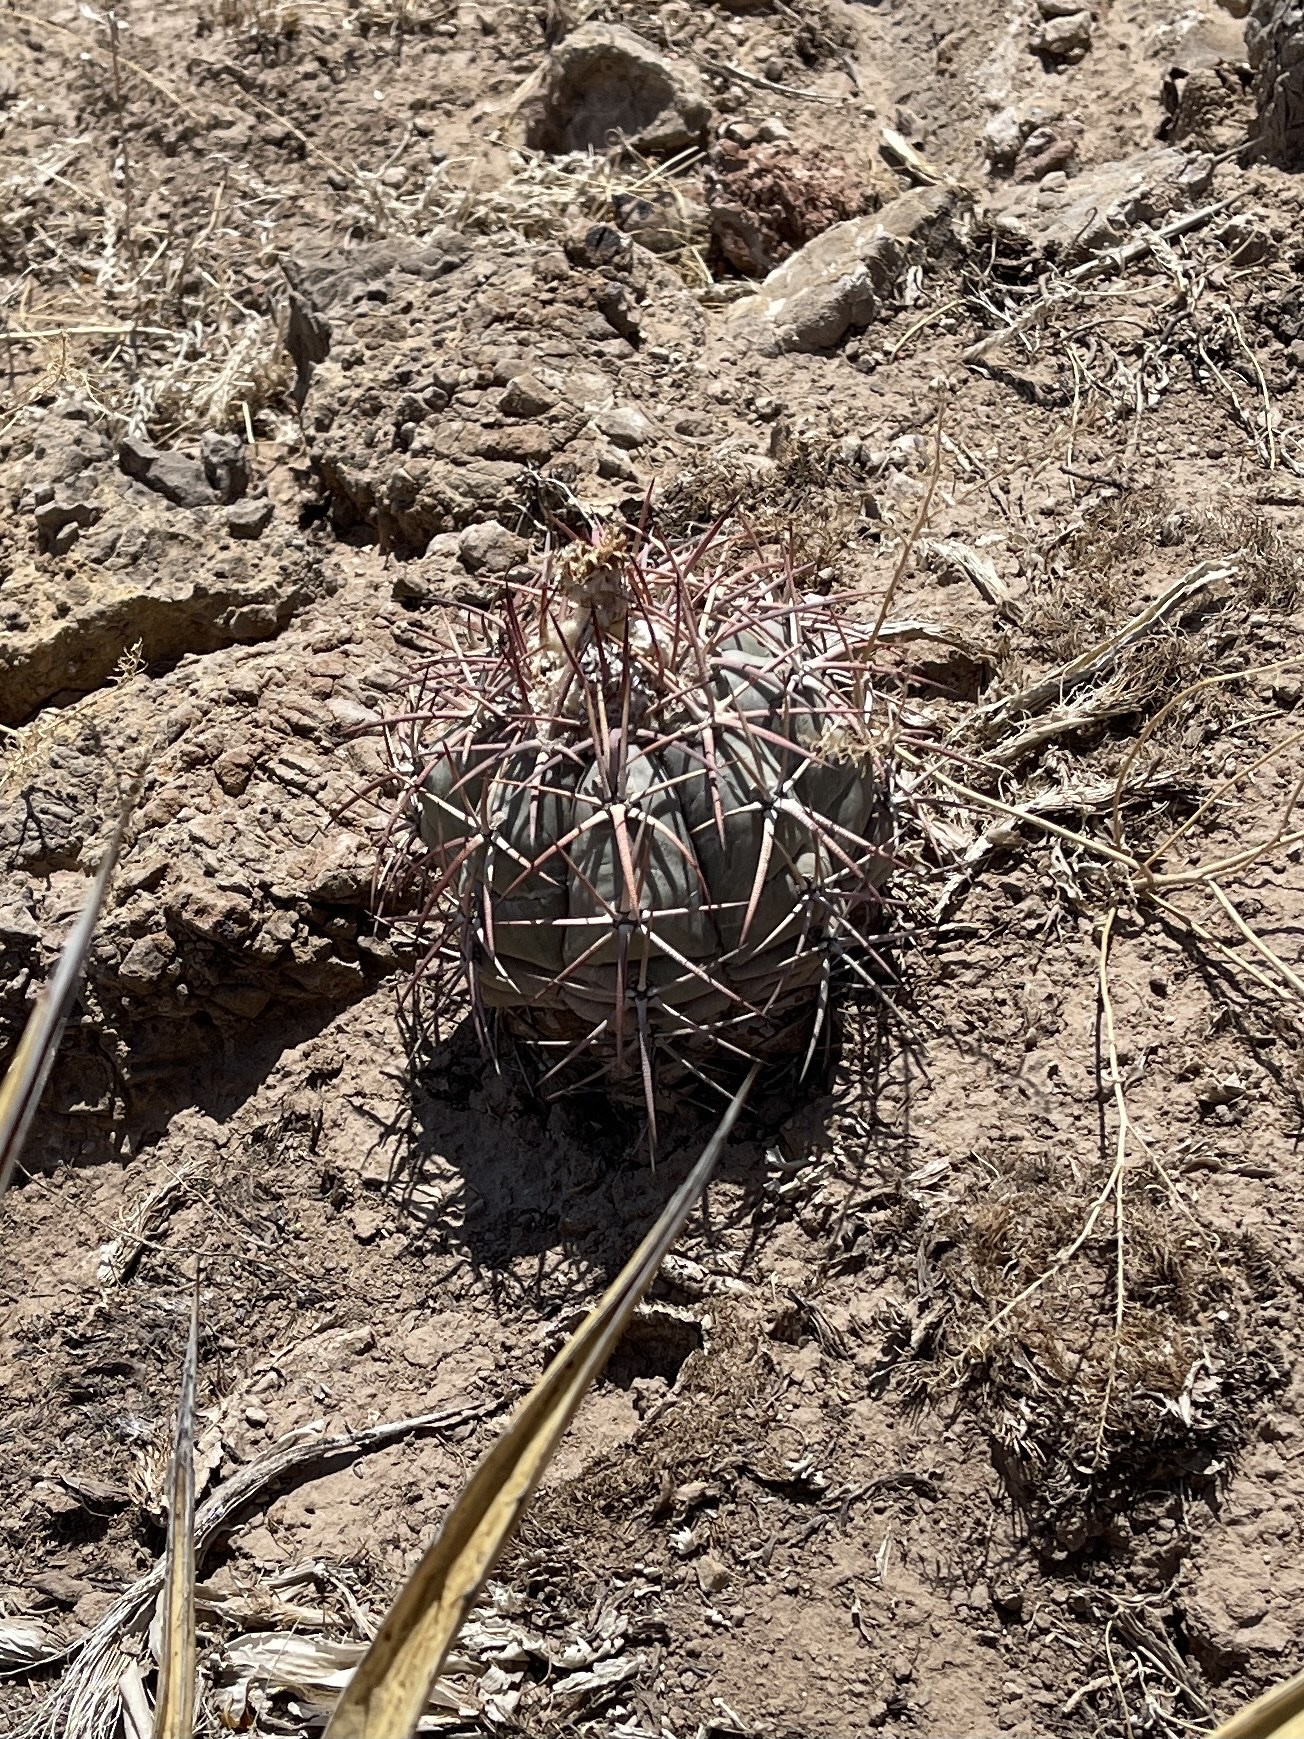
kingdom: Plantae
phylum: Tracheophyta
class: Magnoliopsida
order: Caryophyllales
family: Cactaceae
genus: Echinocactus
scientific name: Echinocactus horizonthalonius
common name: Devilshead
